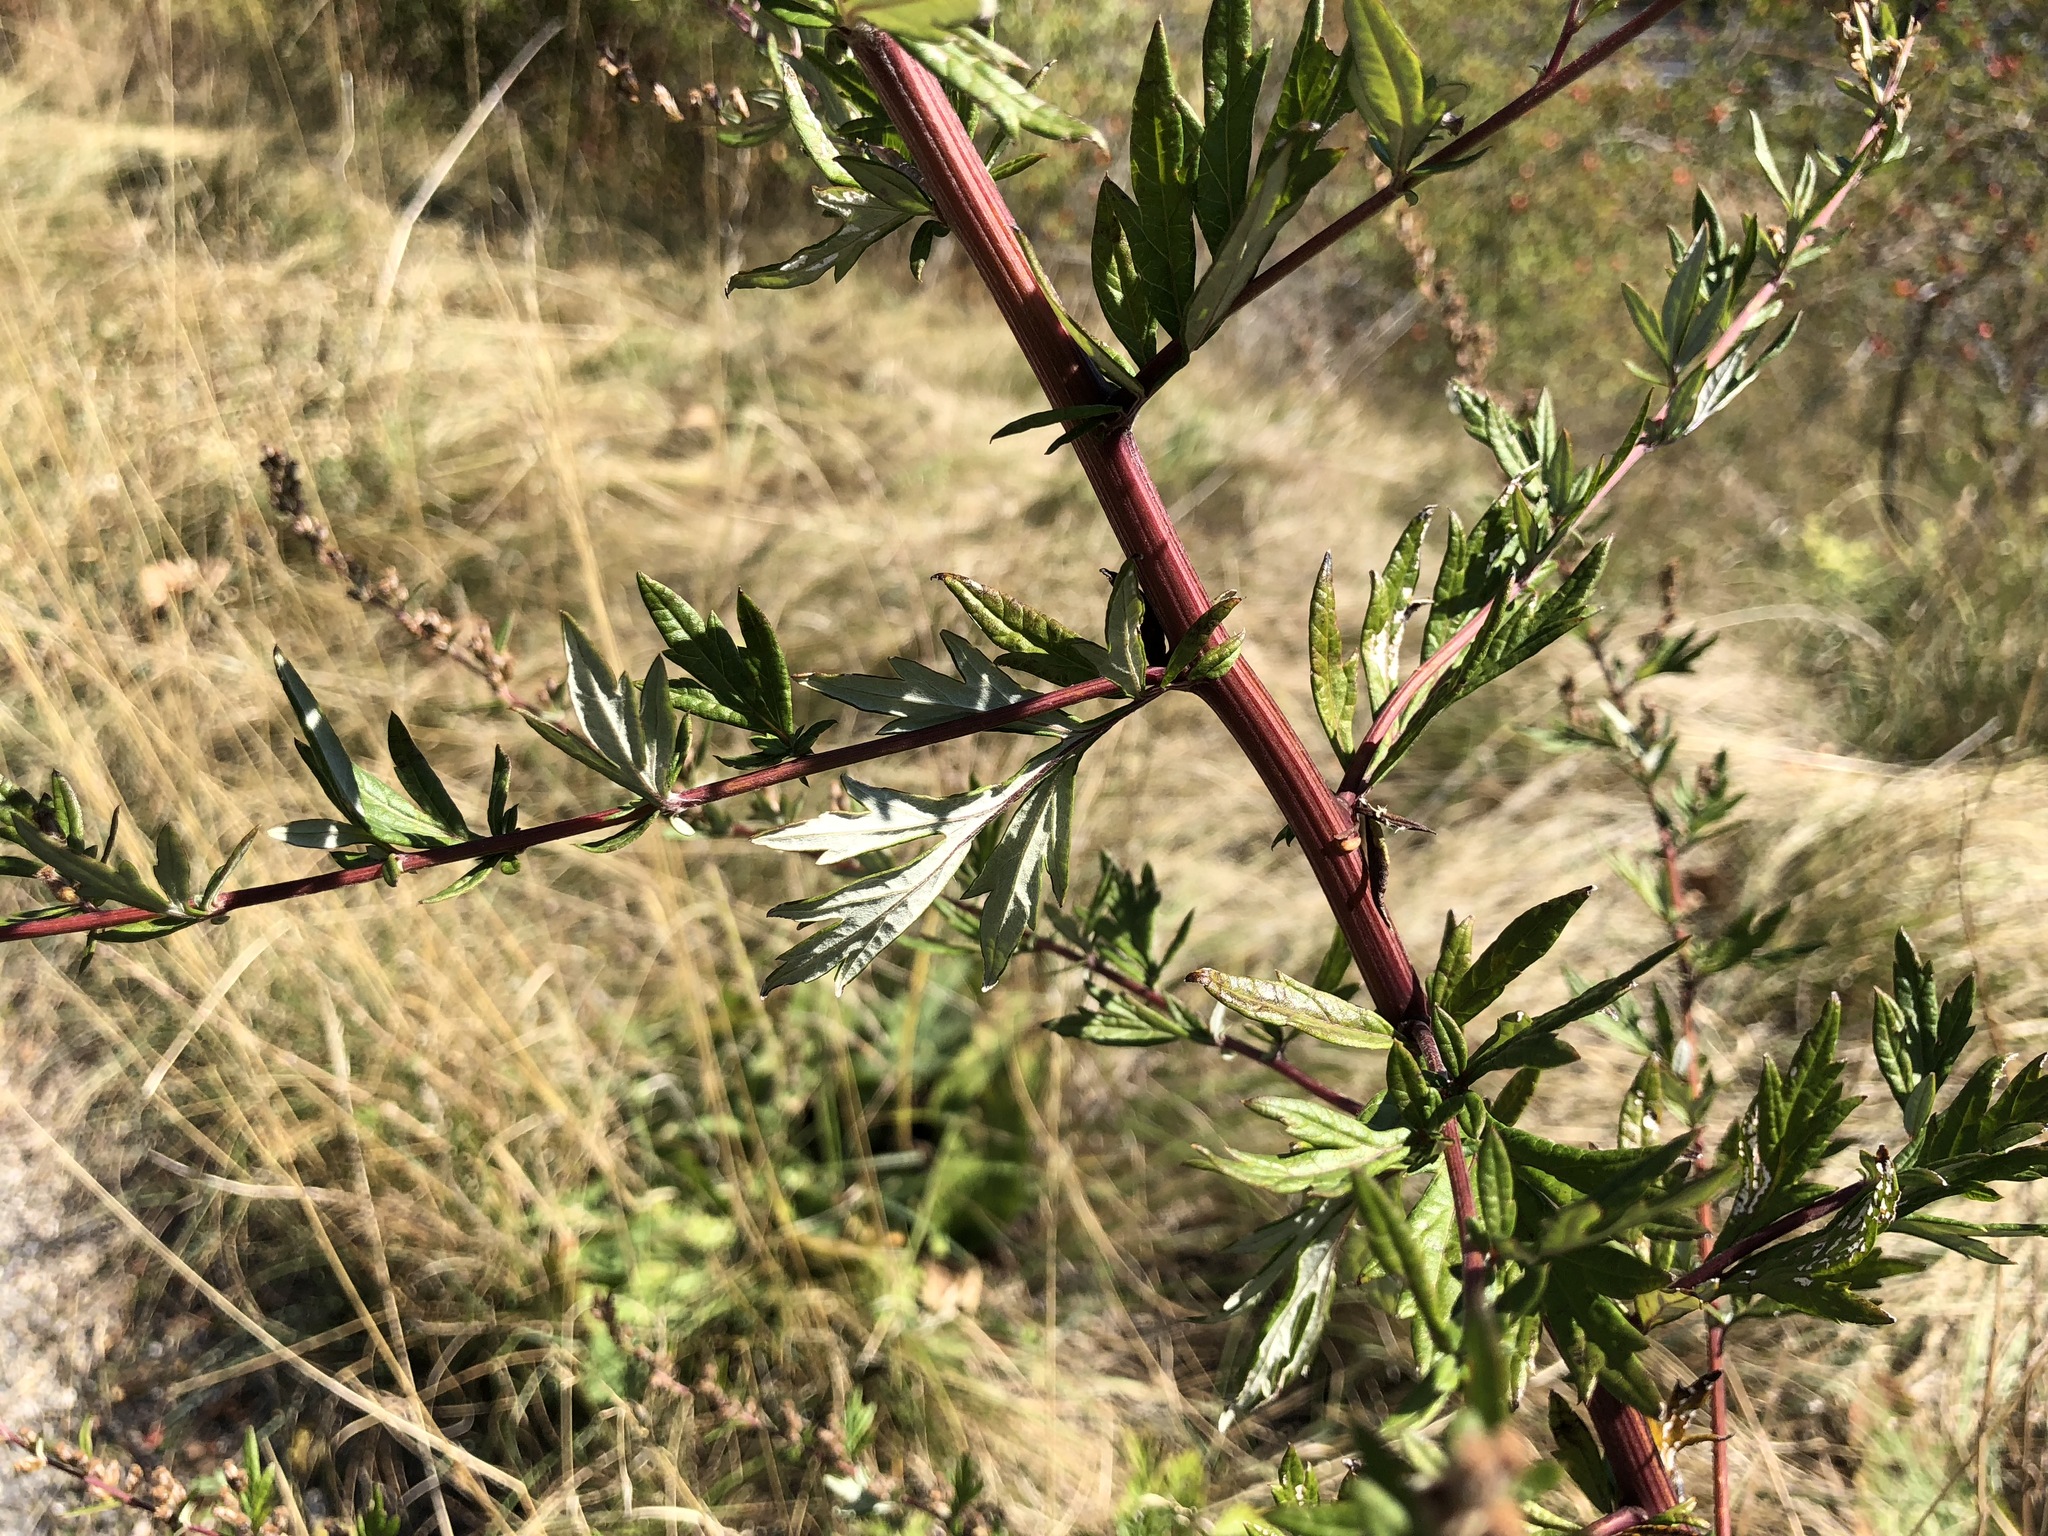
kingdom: Plantae
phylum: Tracheophyta
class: Magnoliopsida
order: Asterales
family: Asteraceae
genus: Artemisia
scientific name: Artemisia vulgaris
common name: Mugwort
